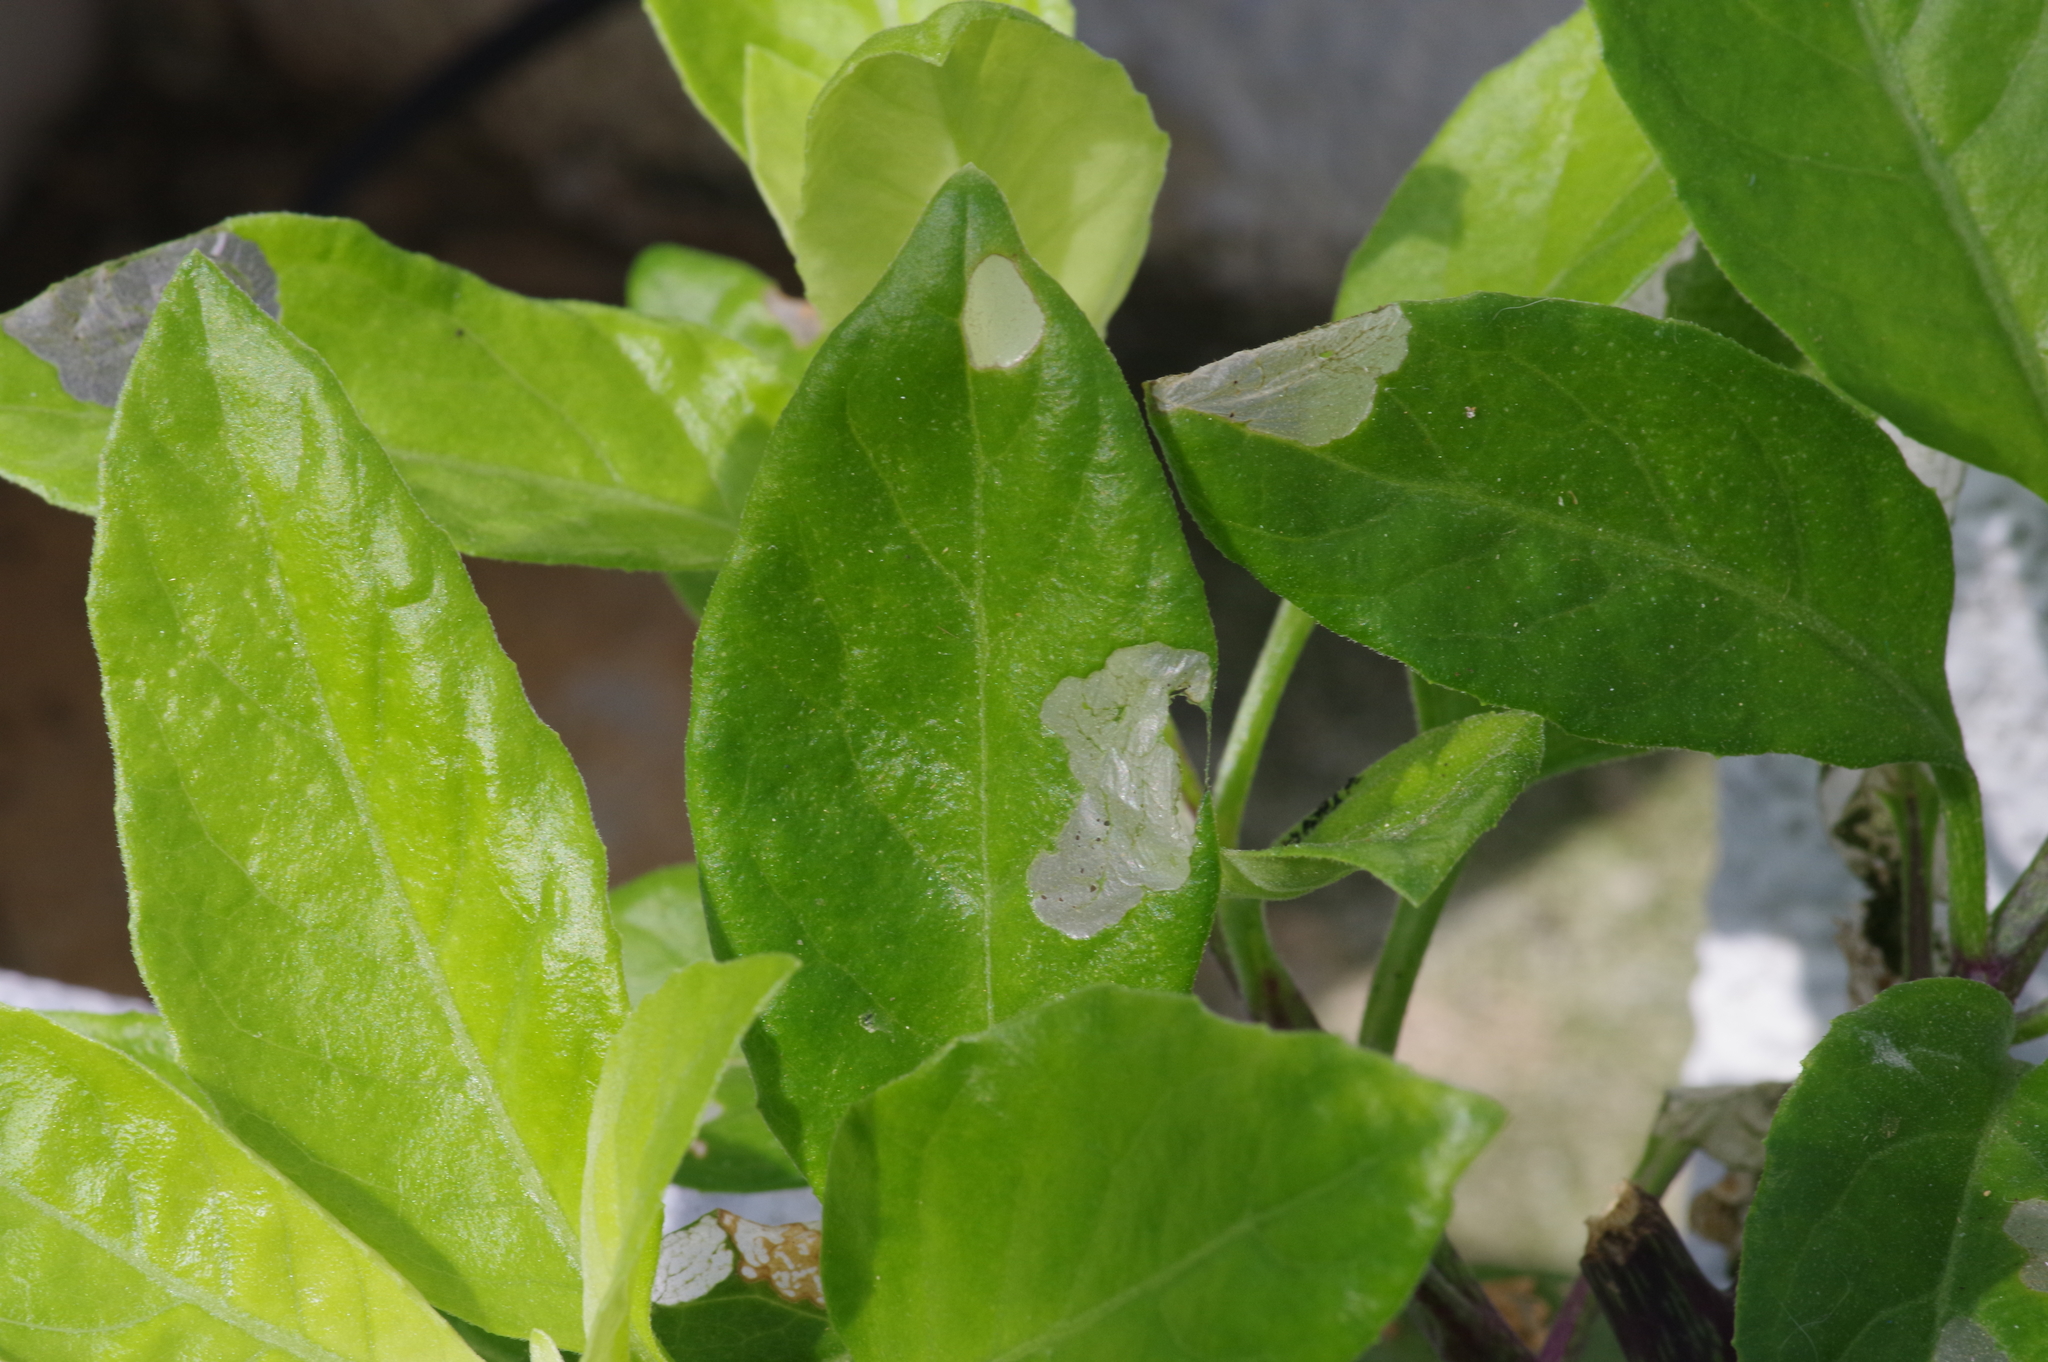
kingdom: Animalia
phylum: Arthropoda
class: Insecta
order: Lepidoptera
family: Erebidae
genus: Nyctemera
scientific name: Nyctemera adversata
